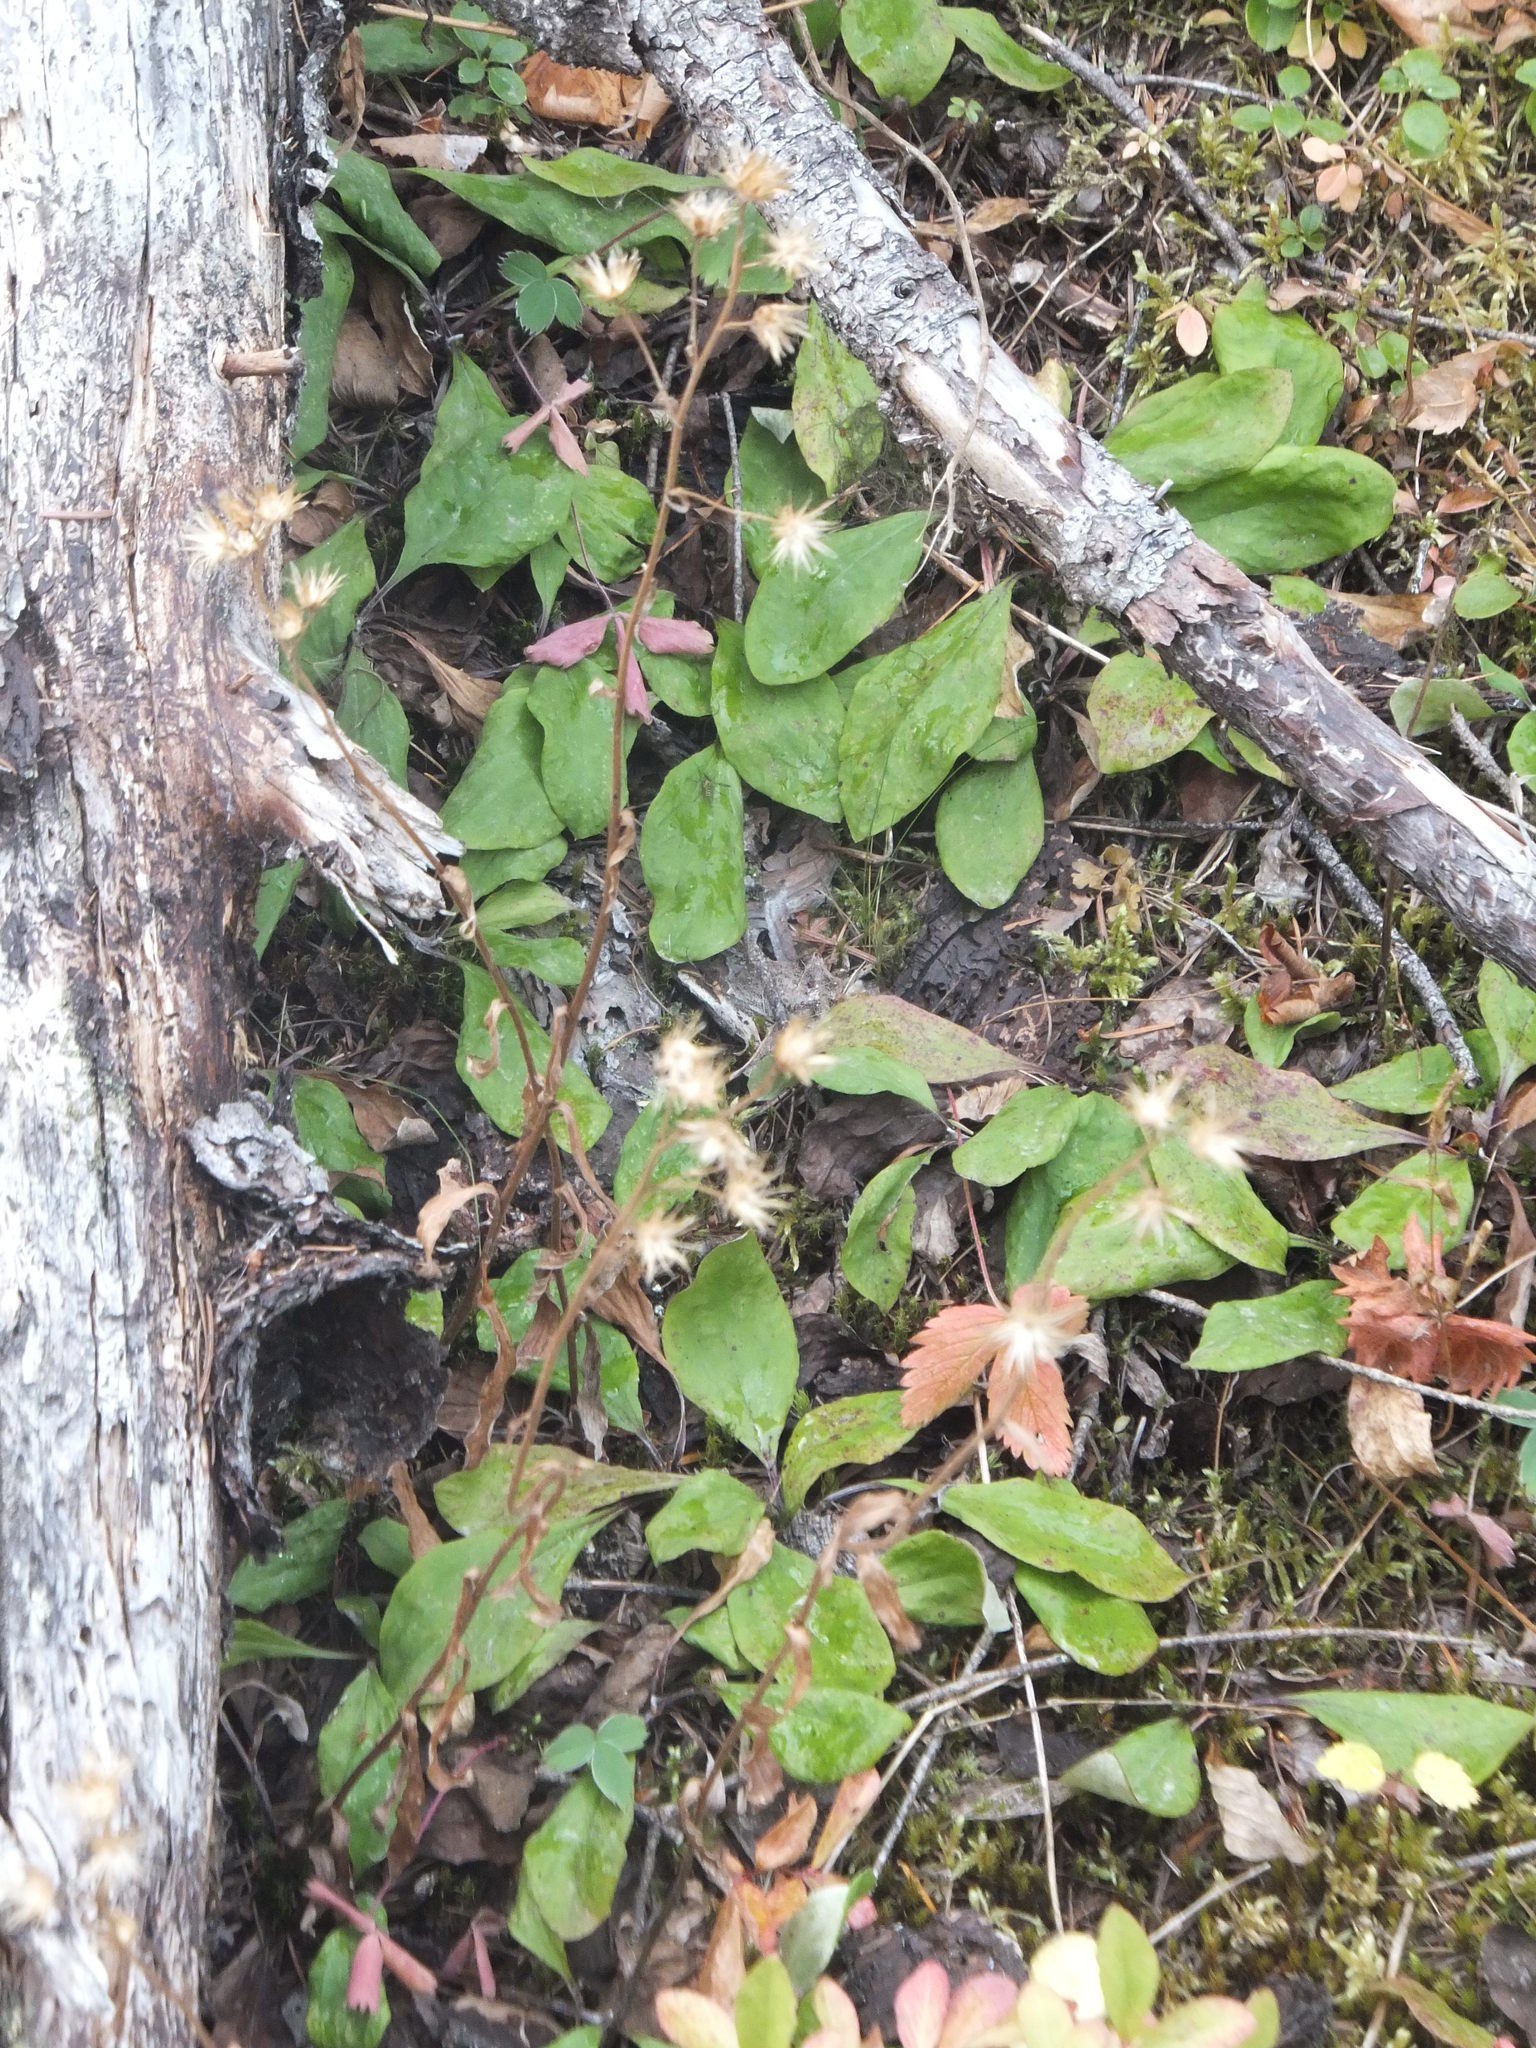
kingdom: Plantae
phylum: Tracheophyta
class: Magnoliopsida
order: Asterales
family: Asteraceae
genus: Antennaria
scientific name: Antennaria racemosa
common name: Racemose pussytoes
